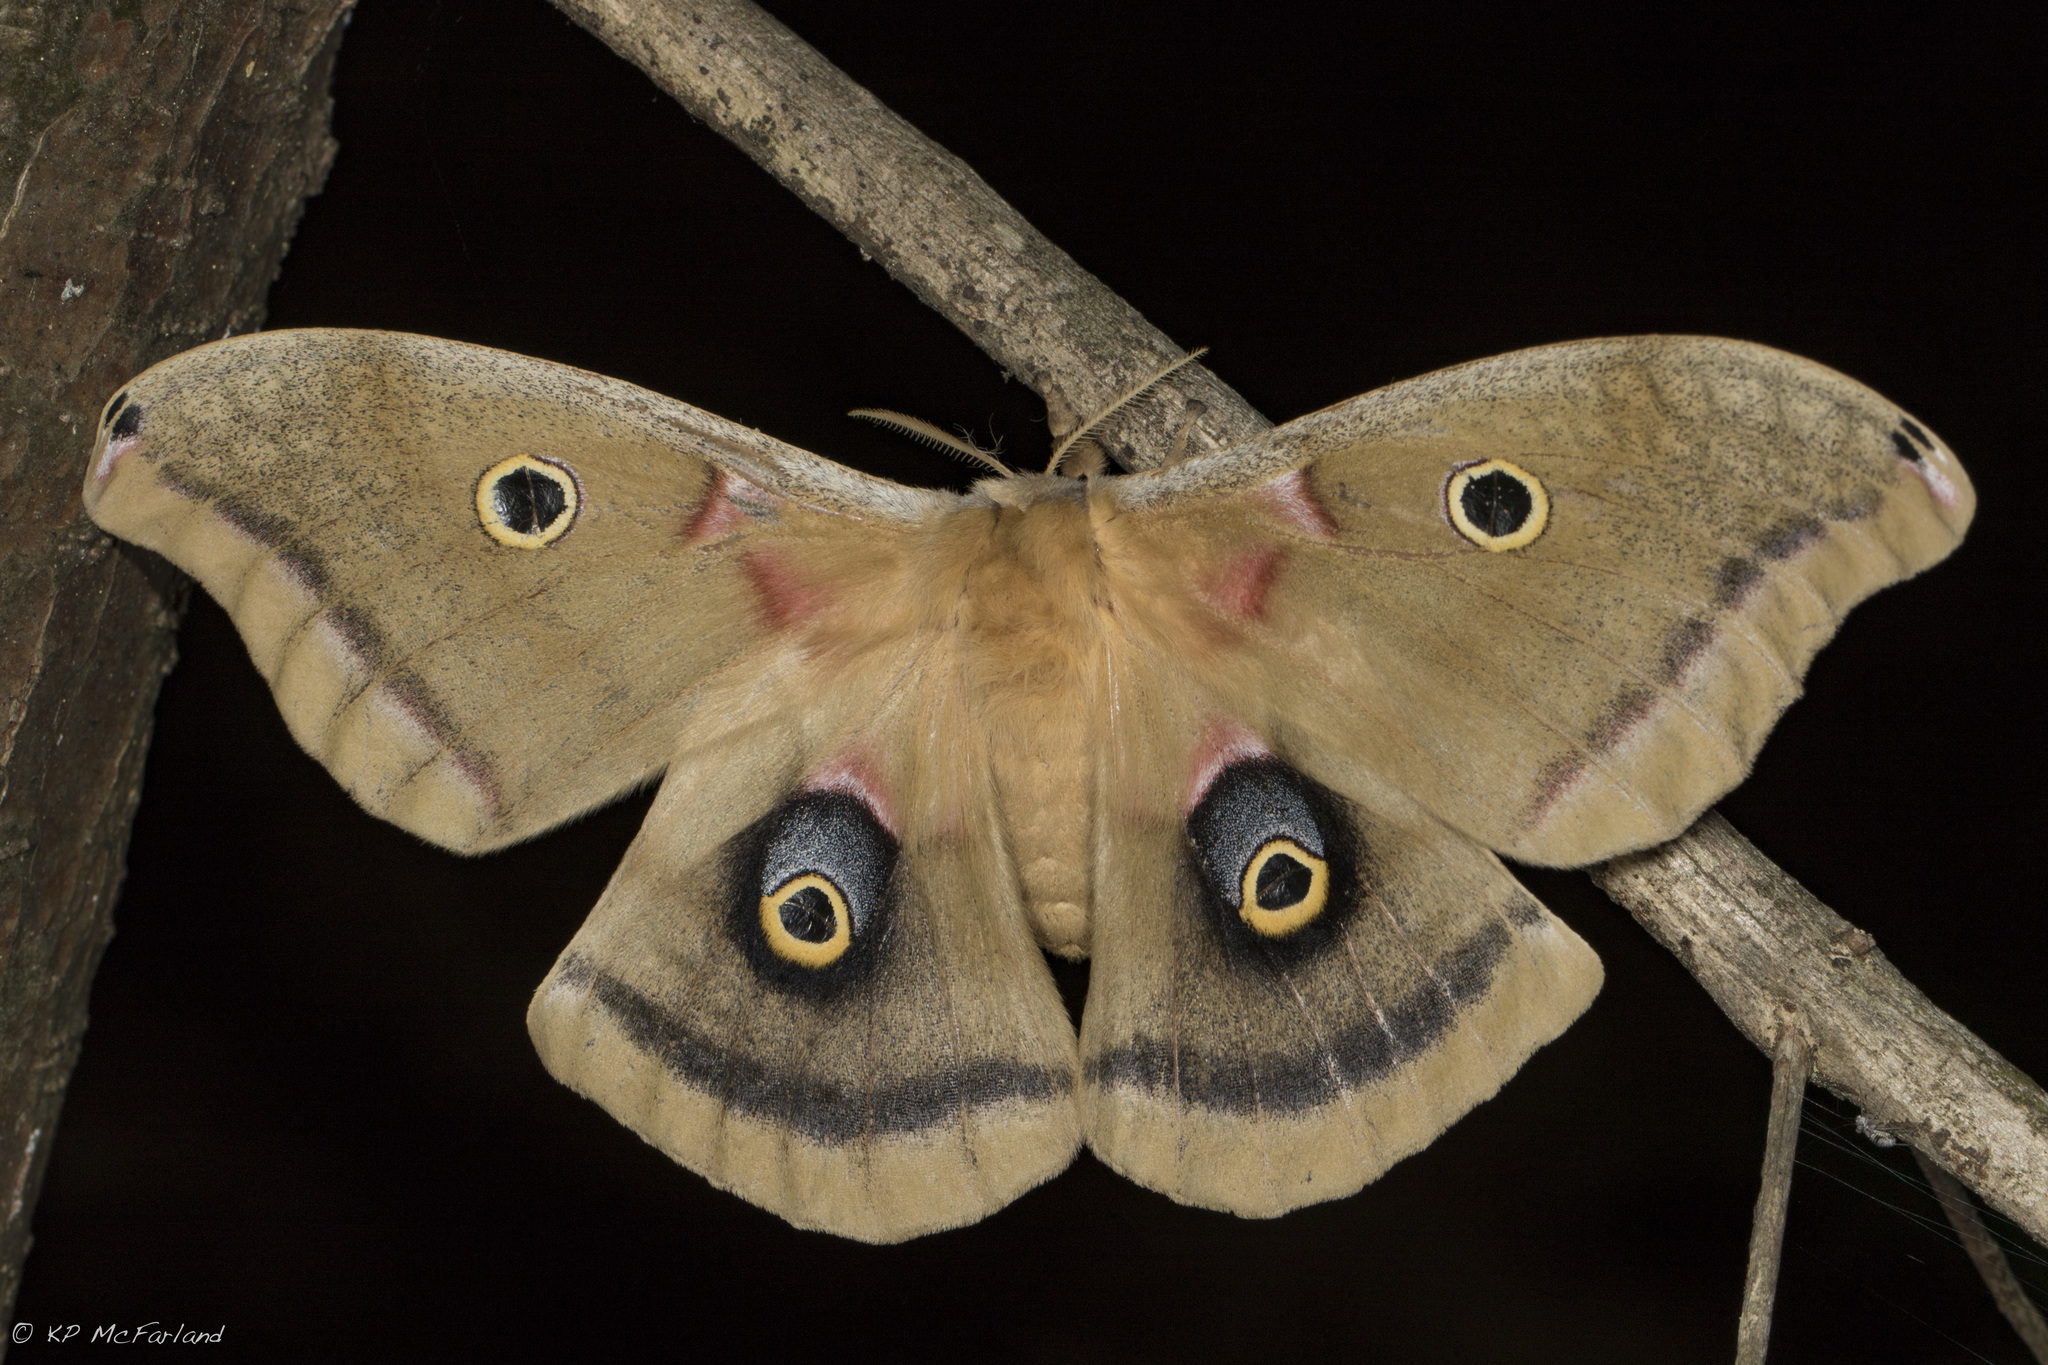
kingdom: Animalia
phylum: Arthropoda
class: Insecta
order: Lepidoptera
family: Saturniidae
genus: Antheraea
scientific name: Antheraea polyphemus
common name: Polyphemus moth
